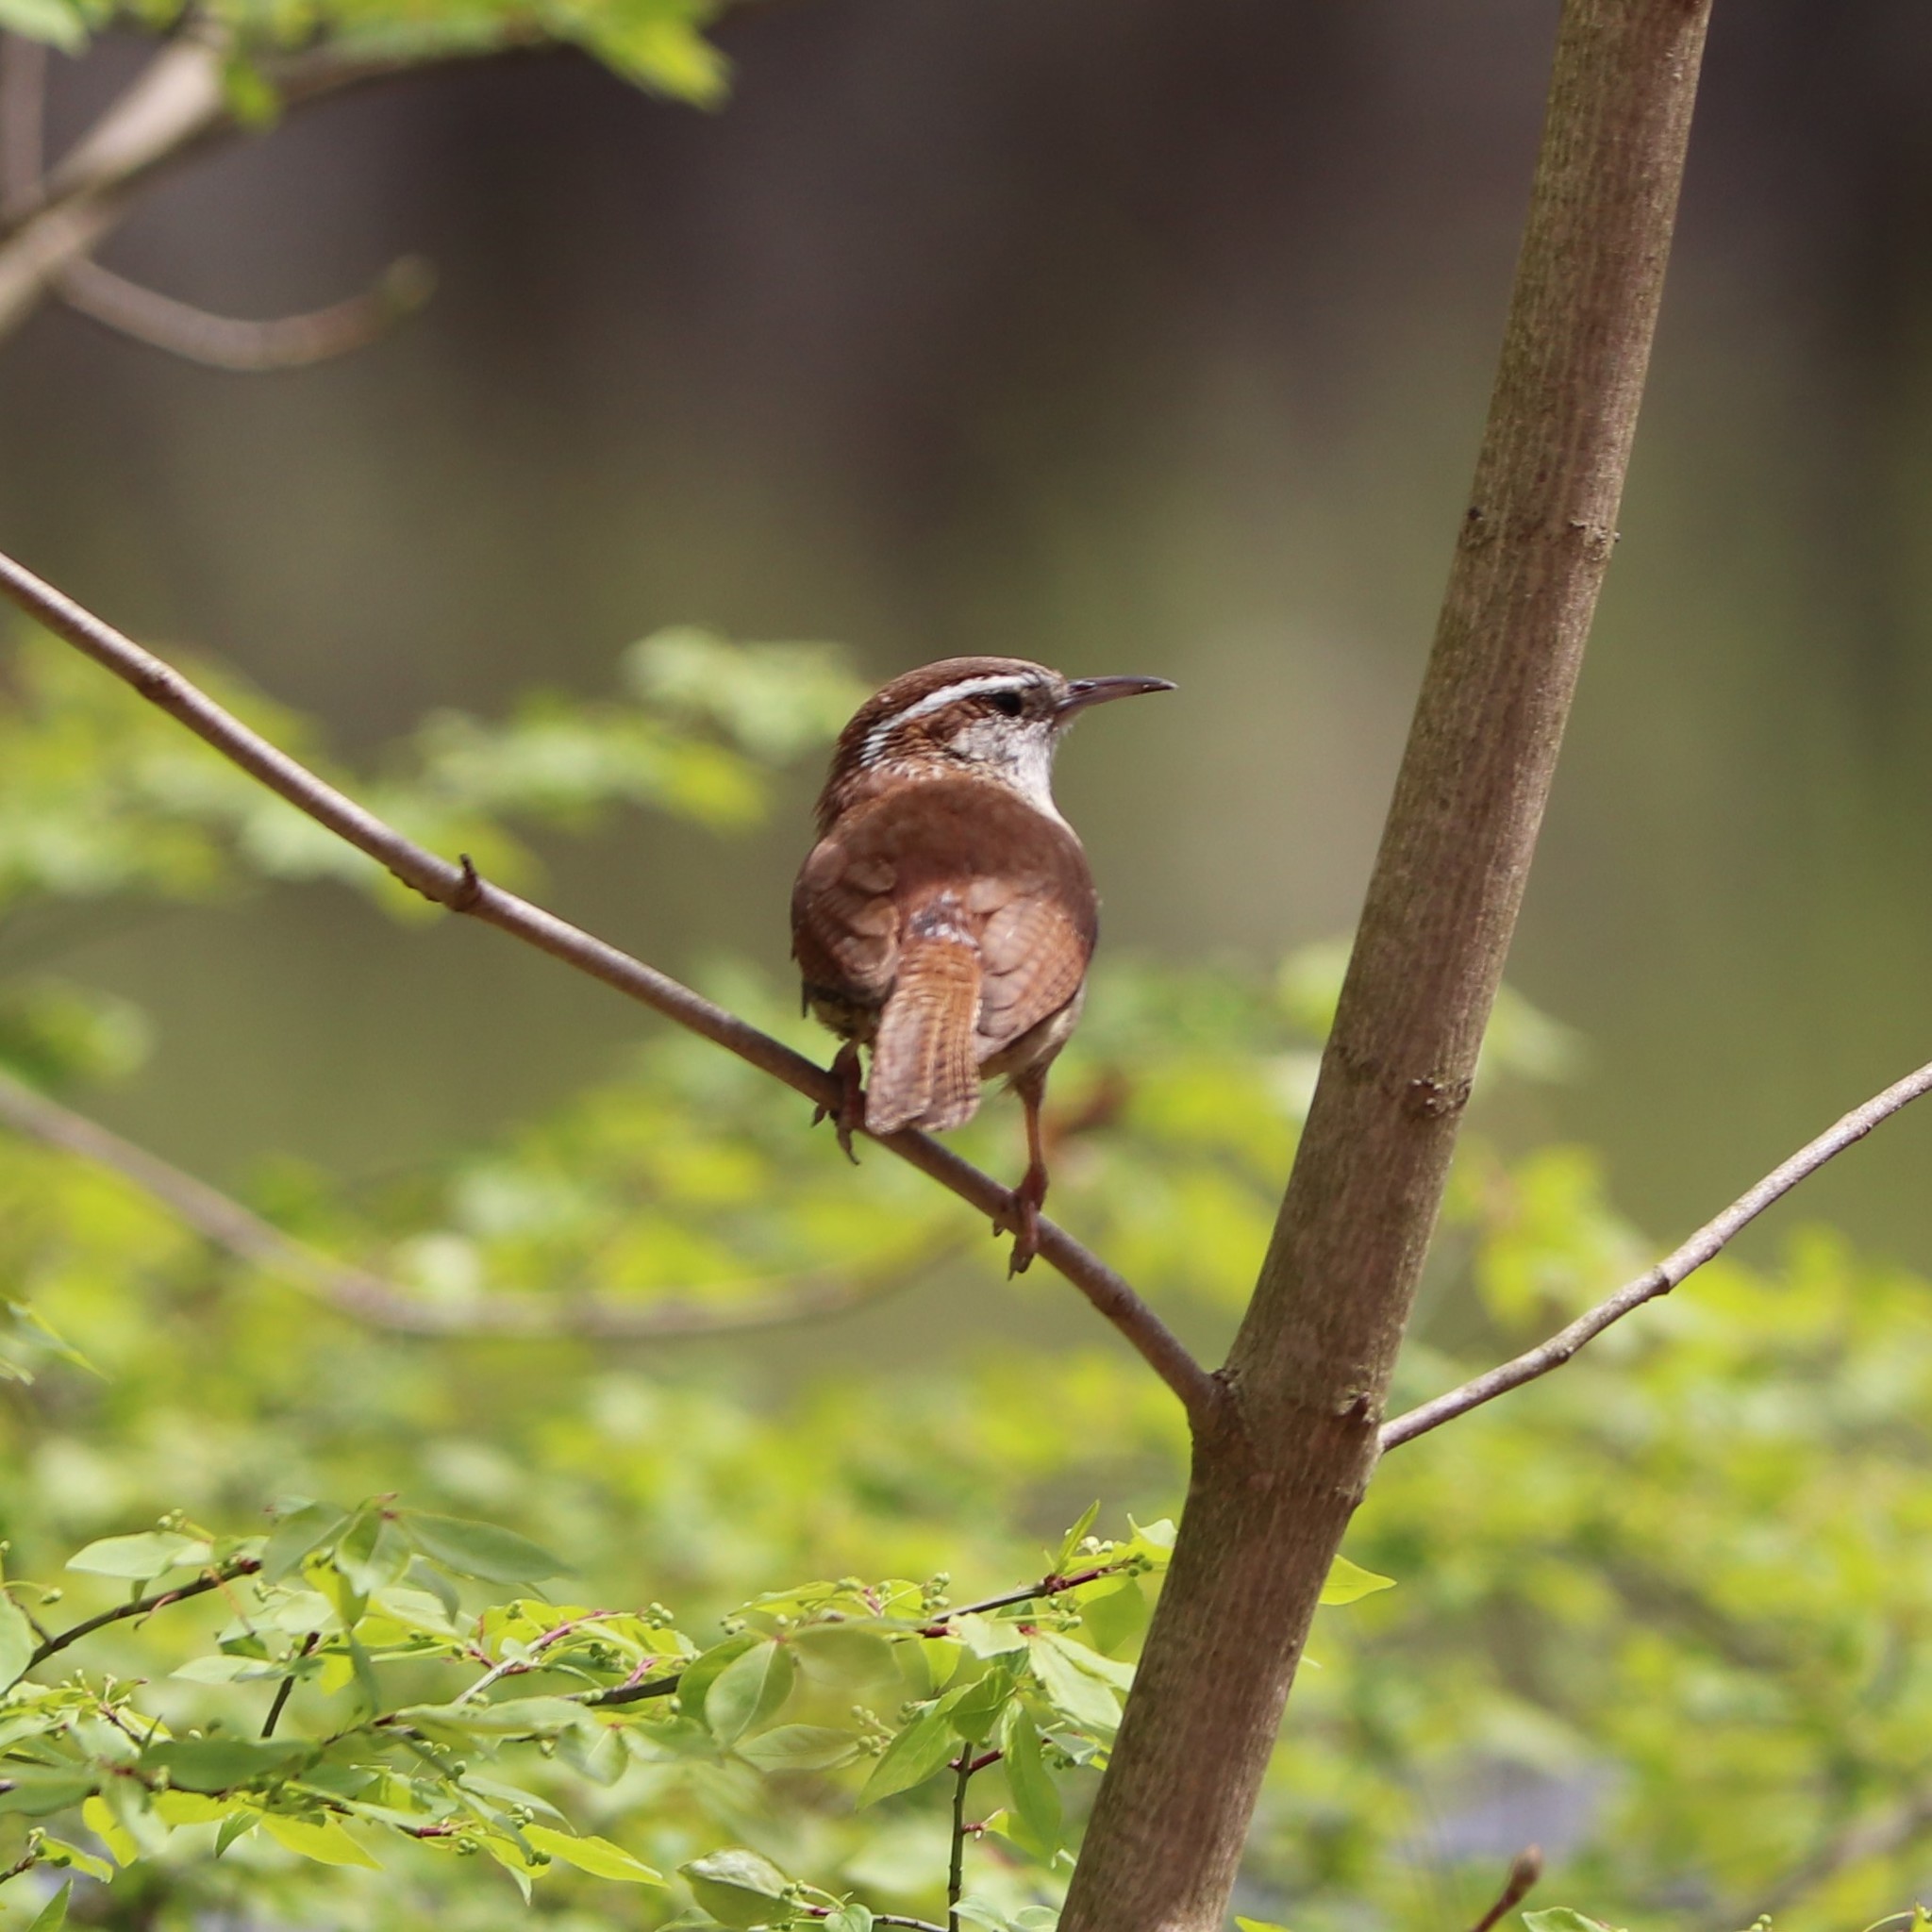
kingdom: Animalia
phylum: Chordata
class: Aves
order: Passeriformes
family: Troglodytidae
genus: Thryothorus
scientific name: Thryothorus ludovicianus
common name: Carolina wren
